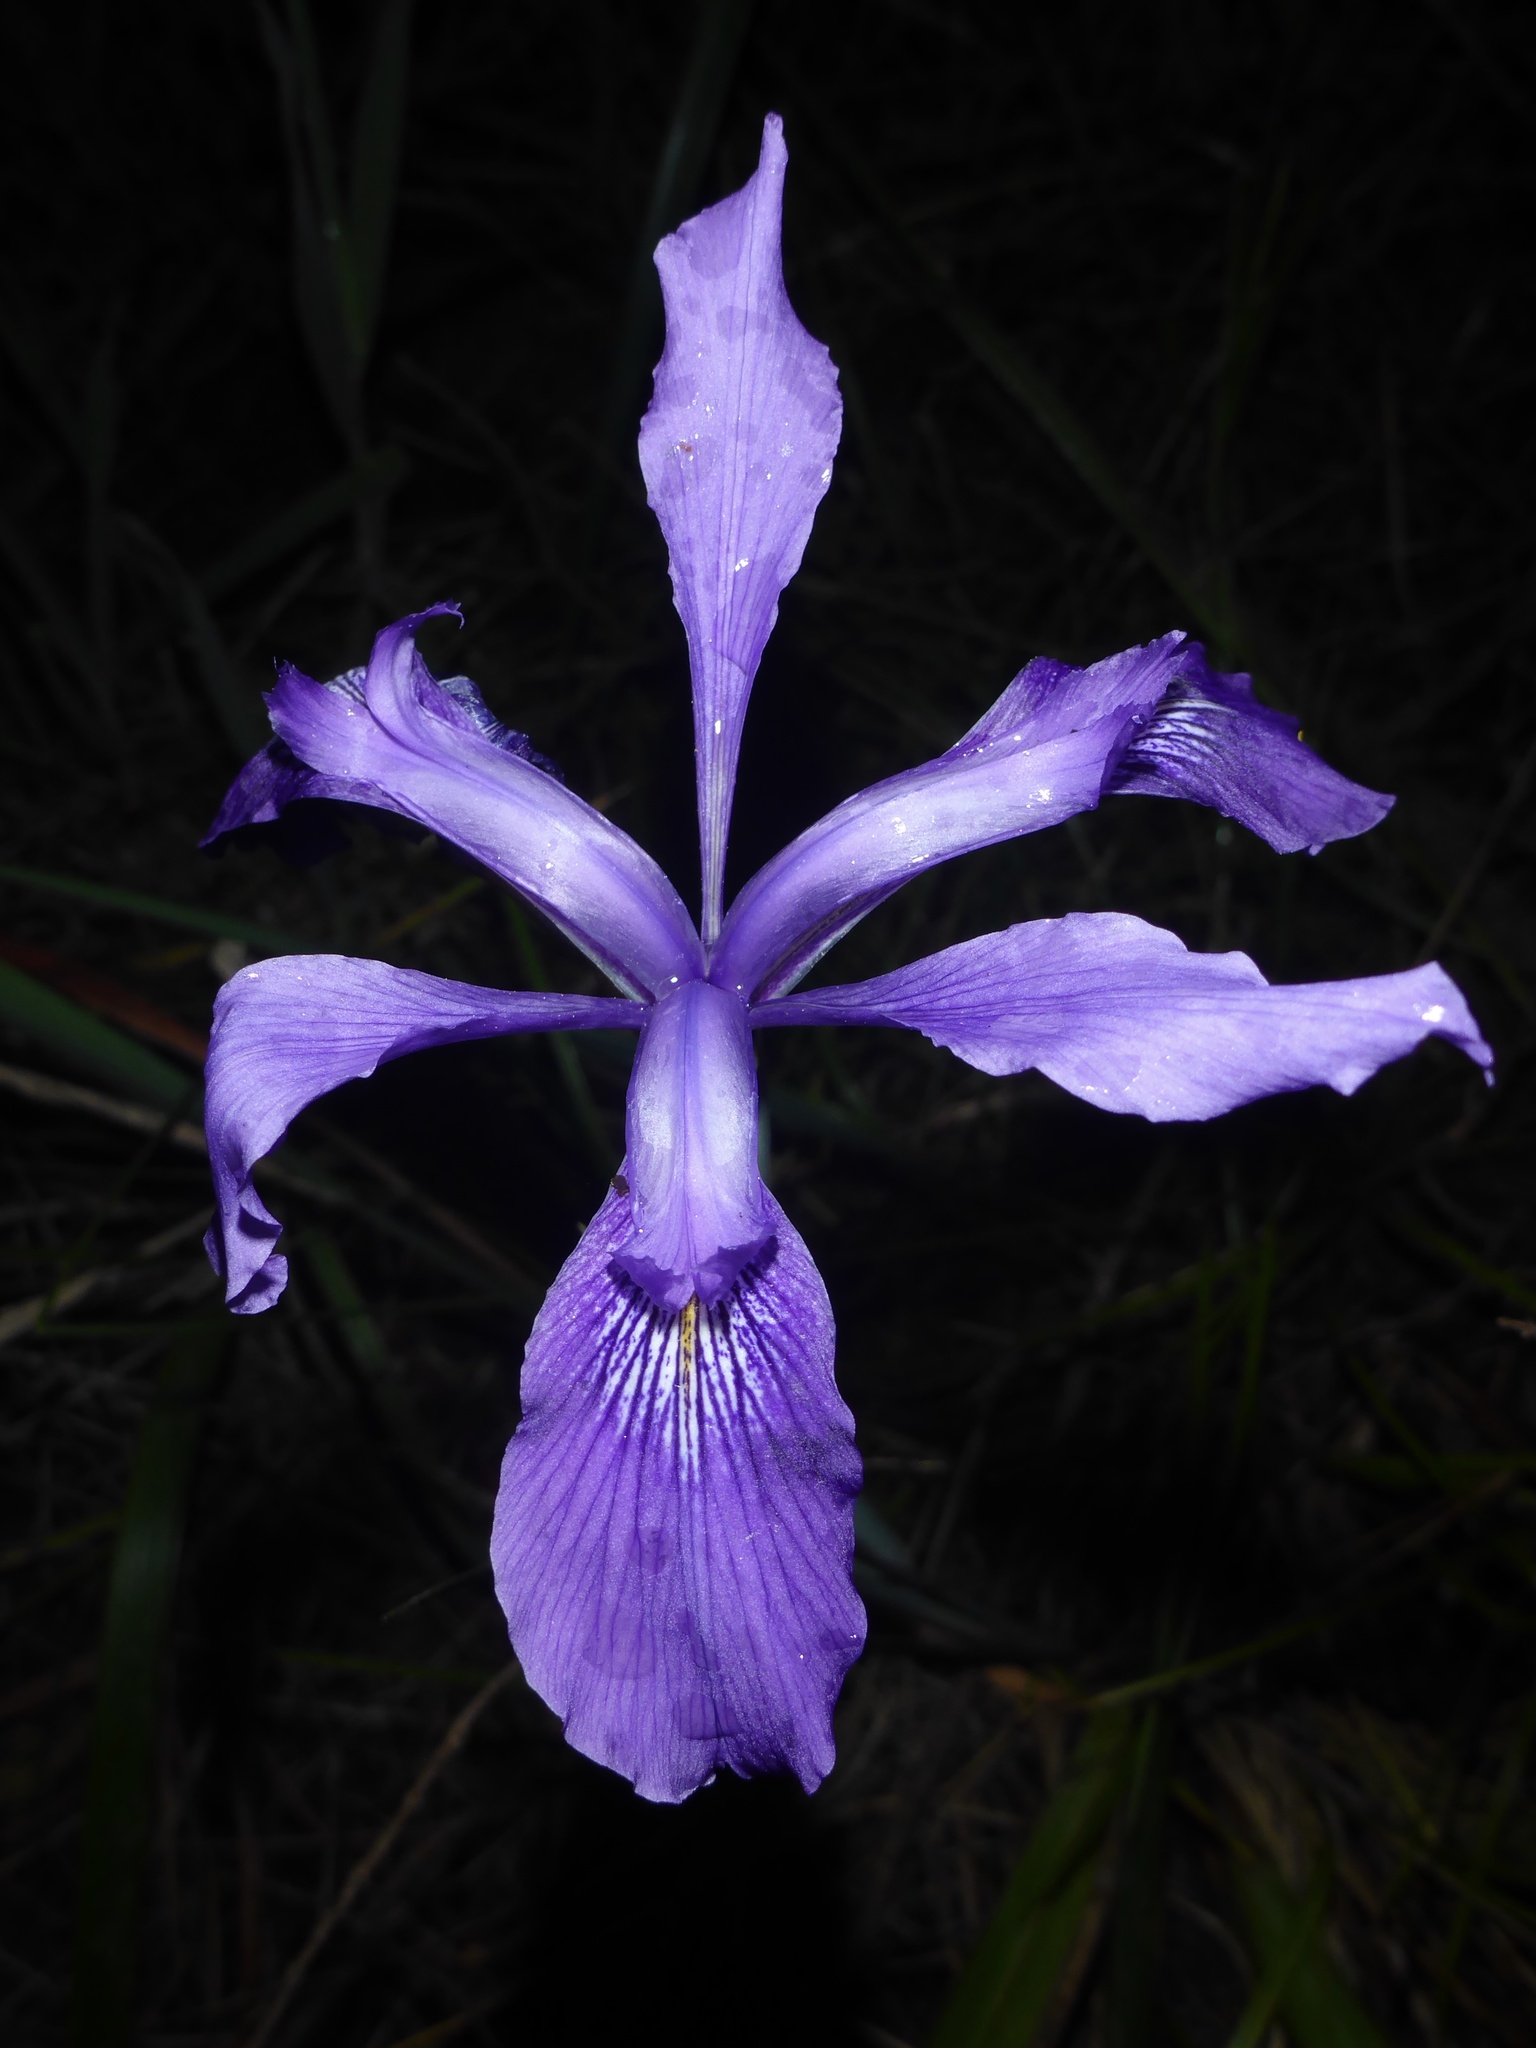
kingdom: Plantae
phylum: Tracheophyta
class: Liliopsida
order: Asparagales
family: Iridaceae
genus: Iris
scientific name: Iris douglasiana
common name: Marin iris
